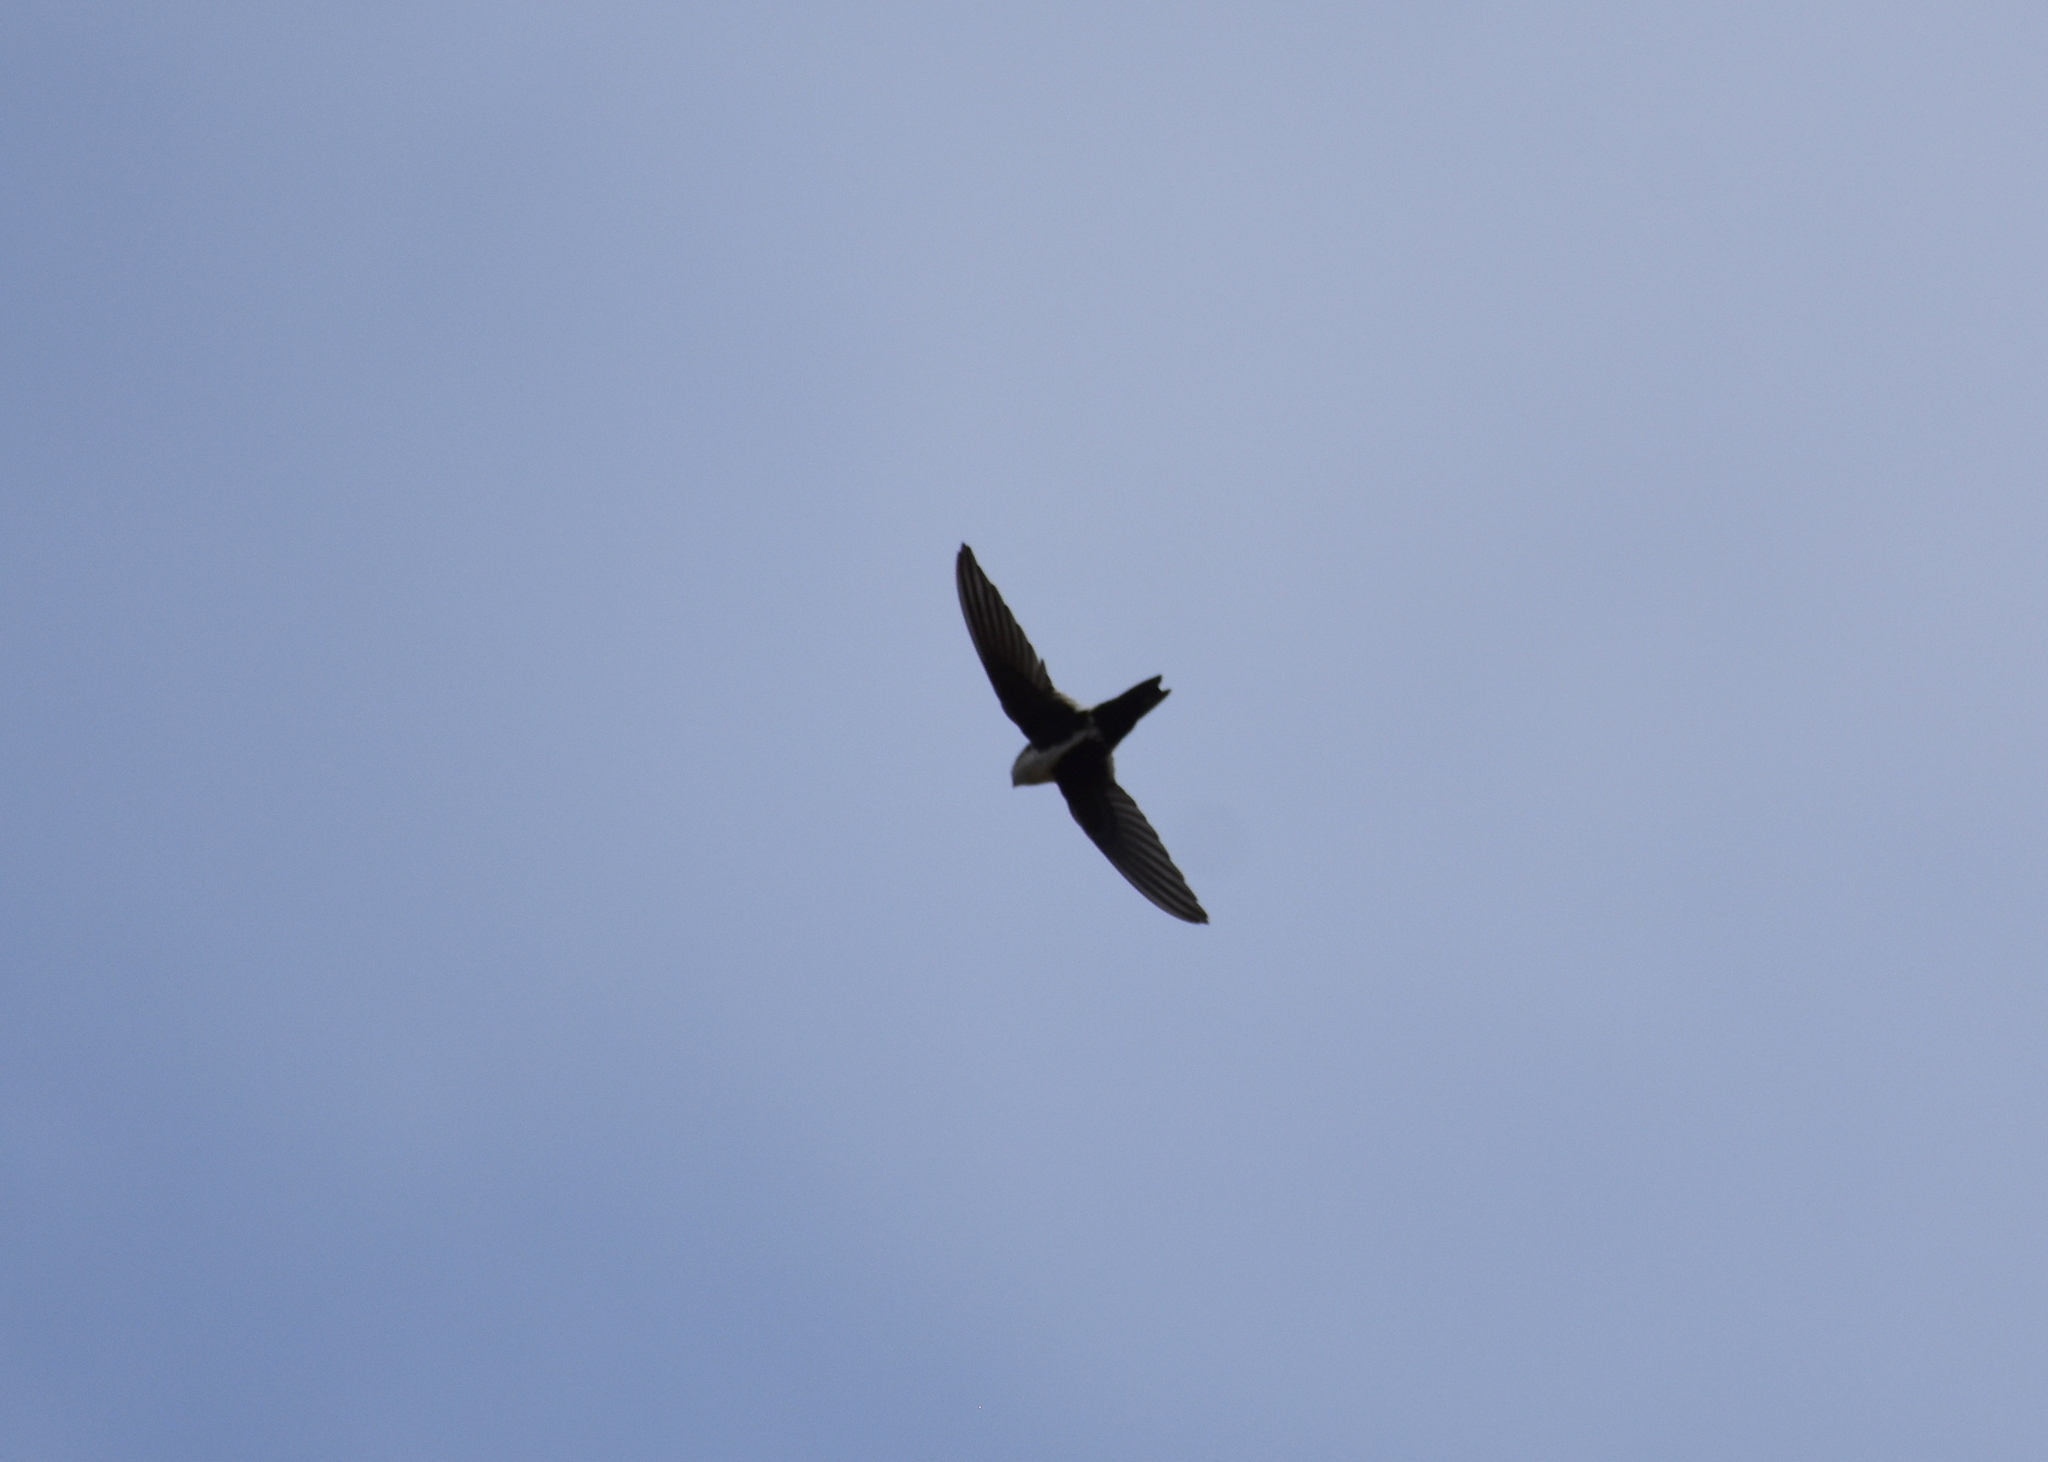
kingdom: Animalia
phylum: Chordata
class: Aves
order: Apodiformes
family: Apodidae
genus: Aeronautes
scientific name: Aeronautes saxatalis
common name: White-throated swift
